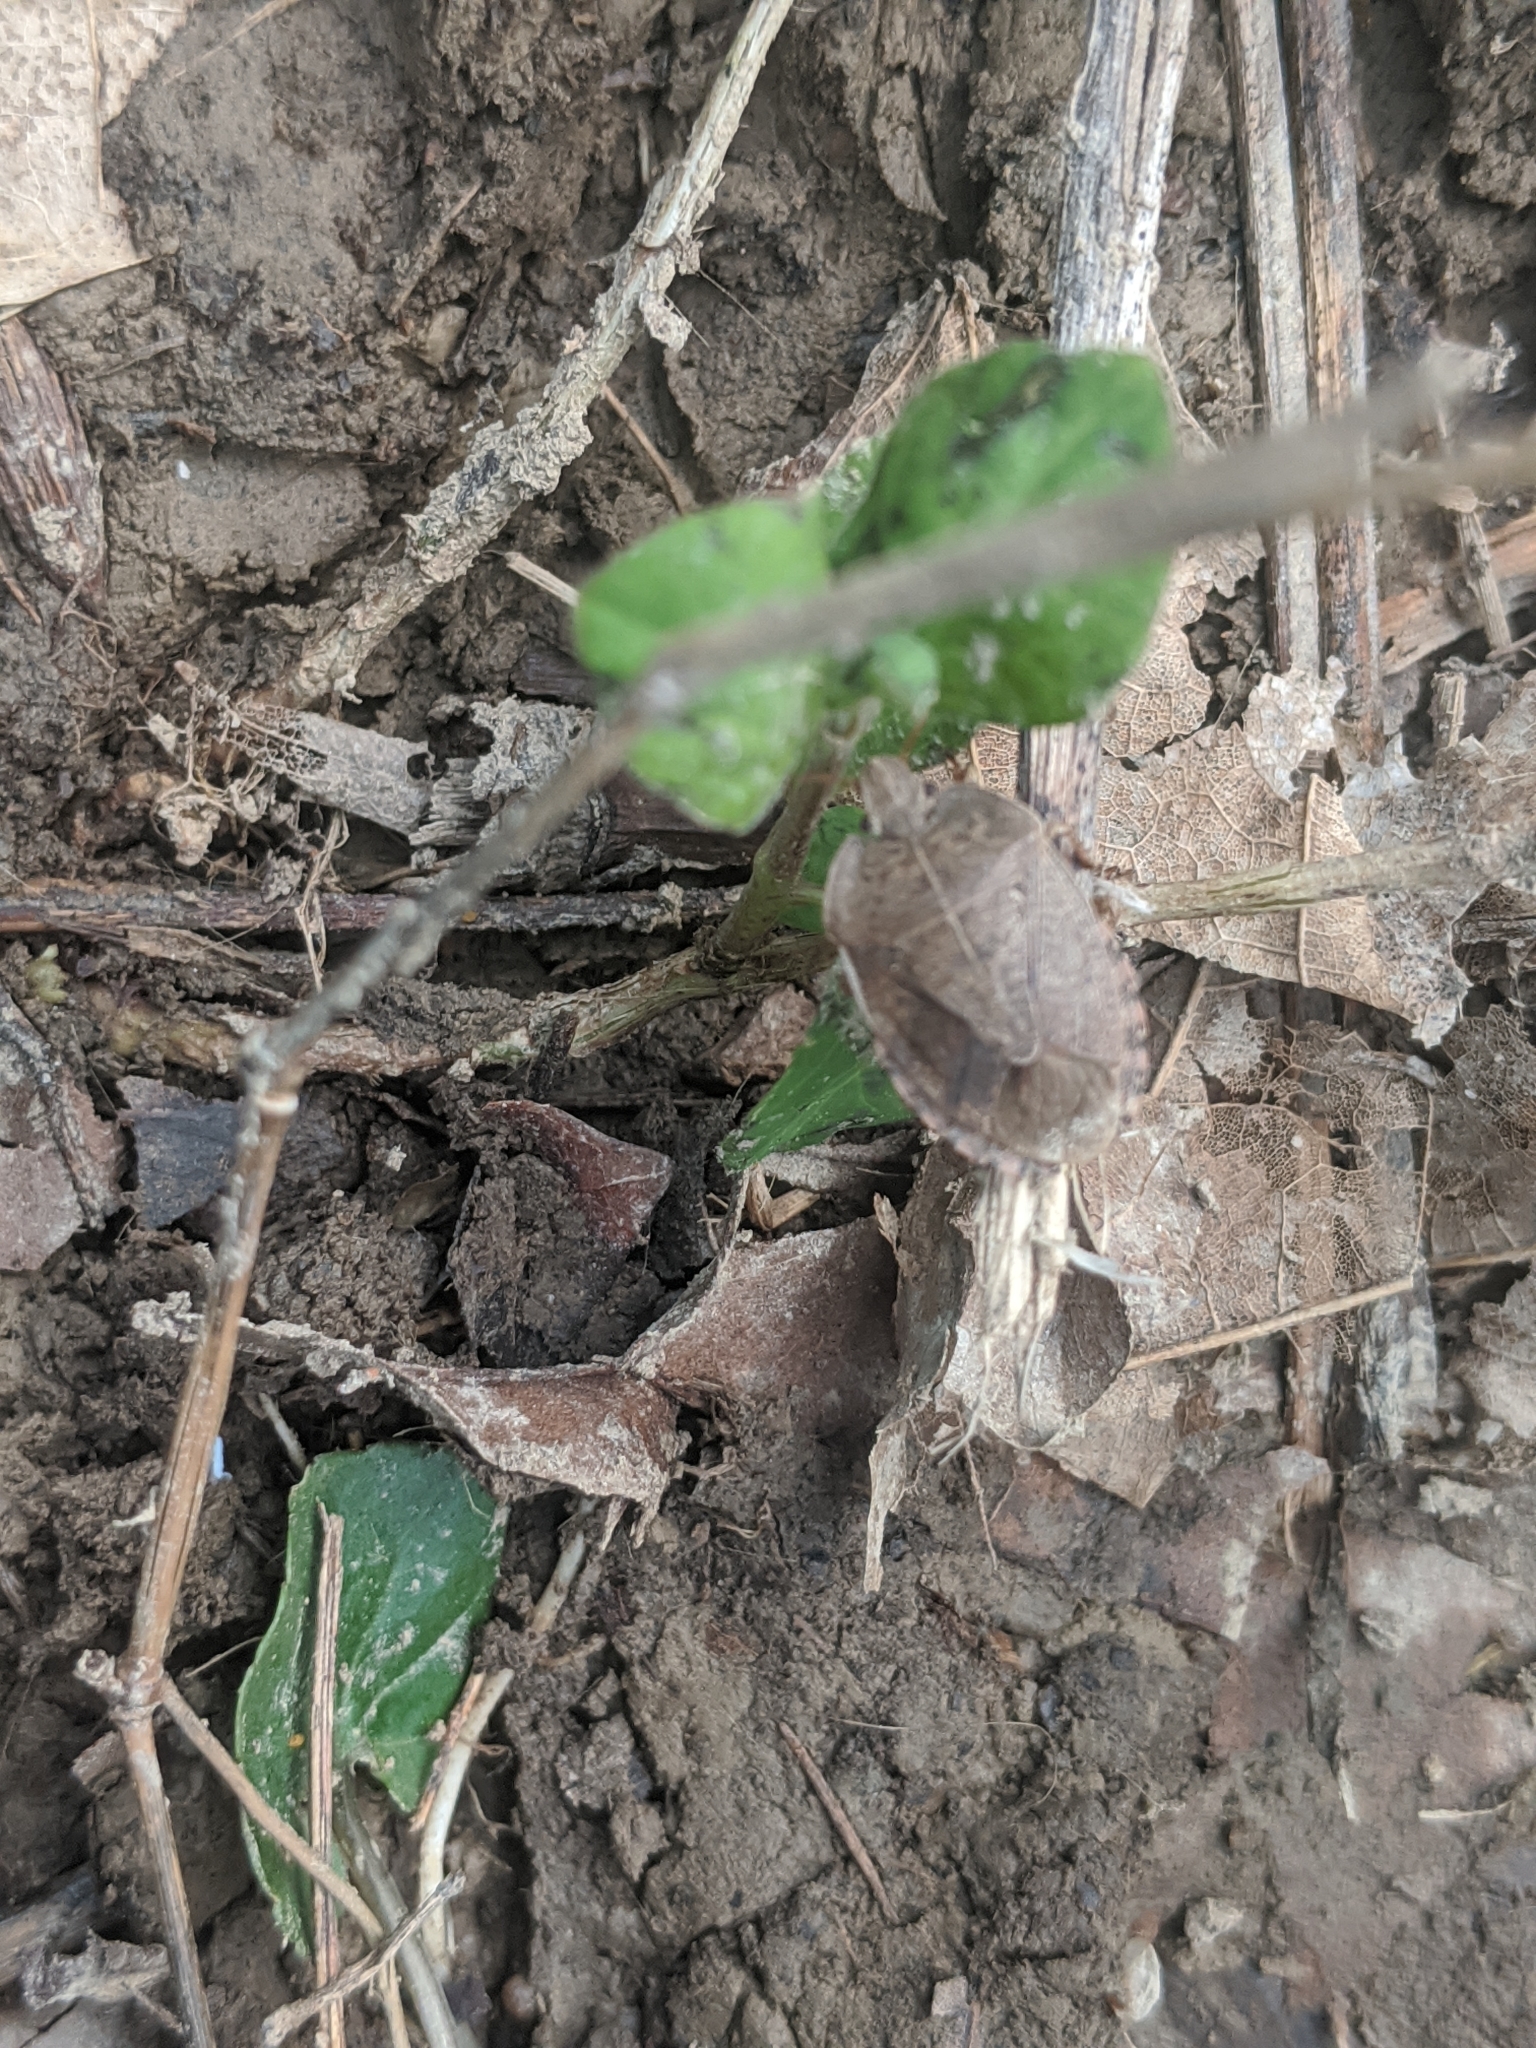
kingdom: Animalia
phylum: Arthropoda
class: Insecta
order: Hemiptera
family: Pentatomidae
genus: Menecles
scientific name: Menecles insertus
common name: Elf shoe stink bug
